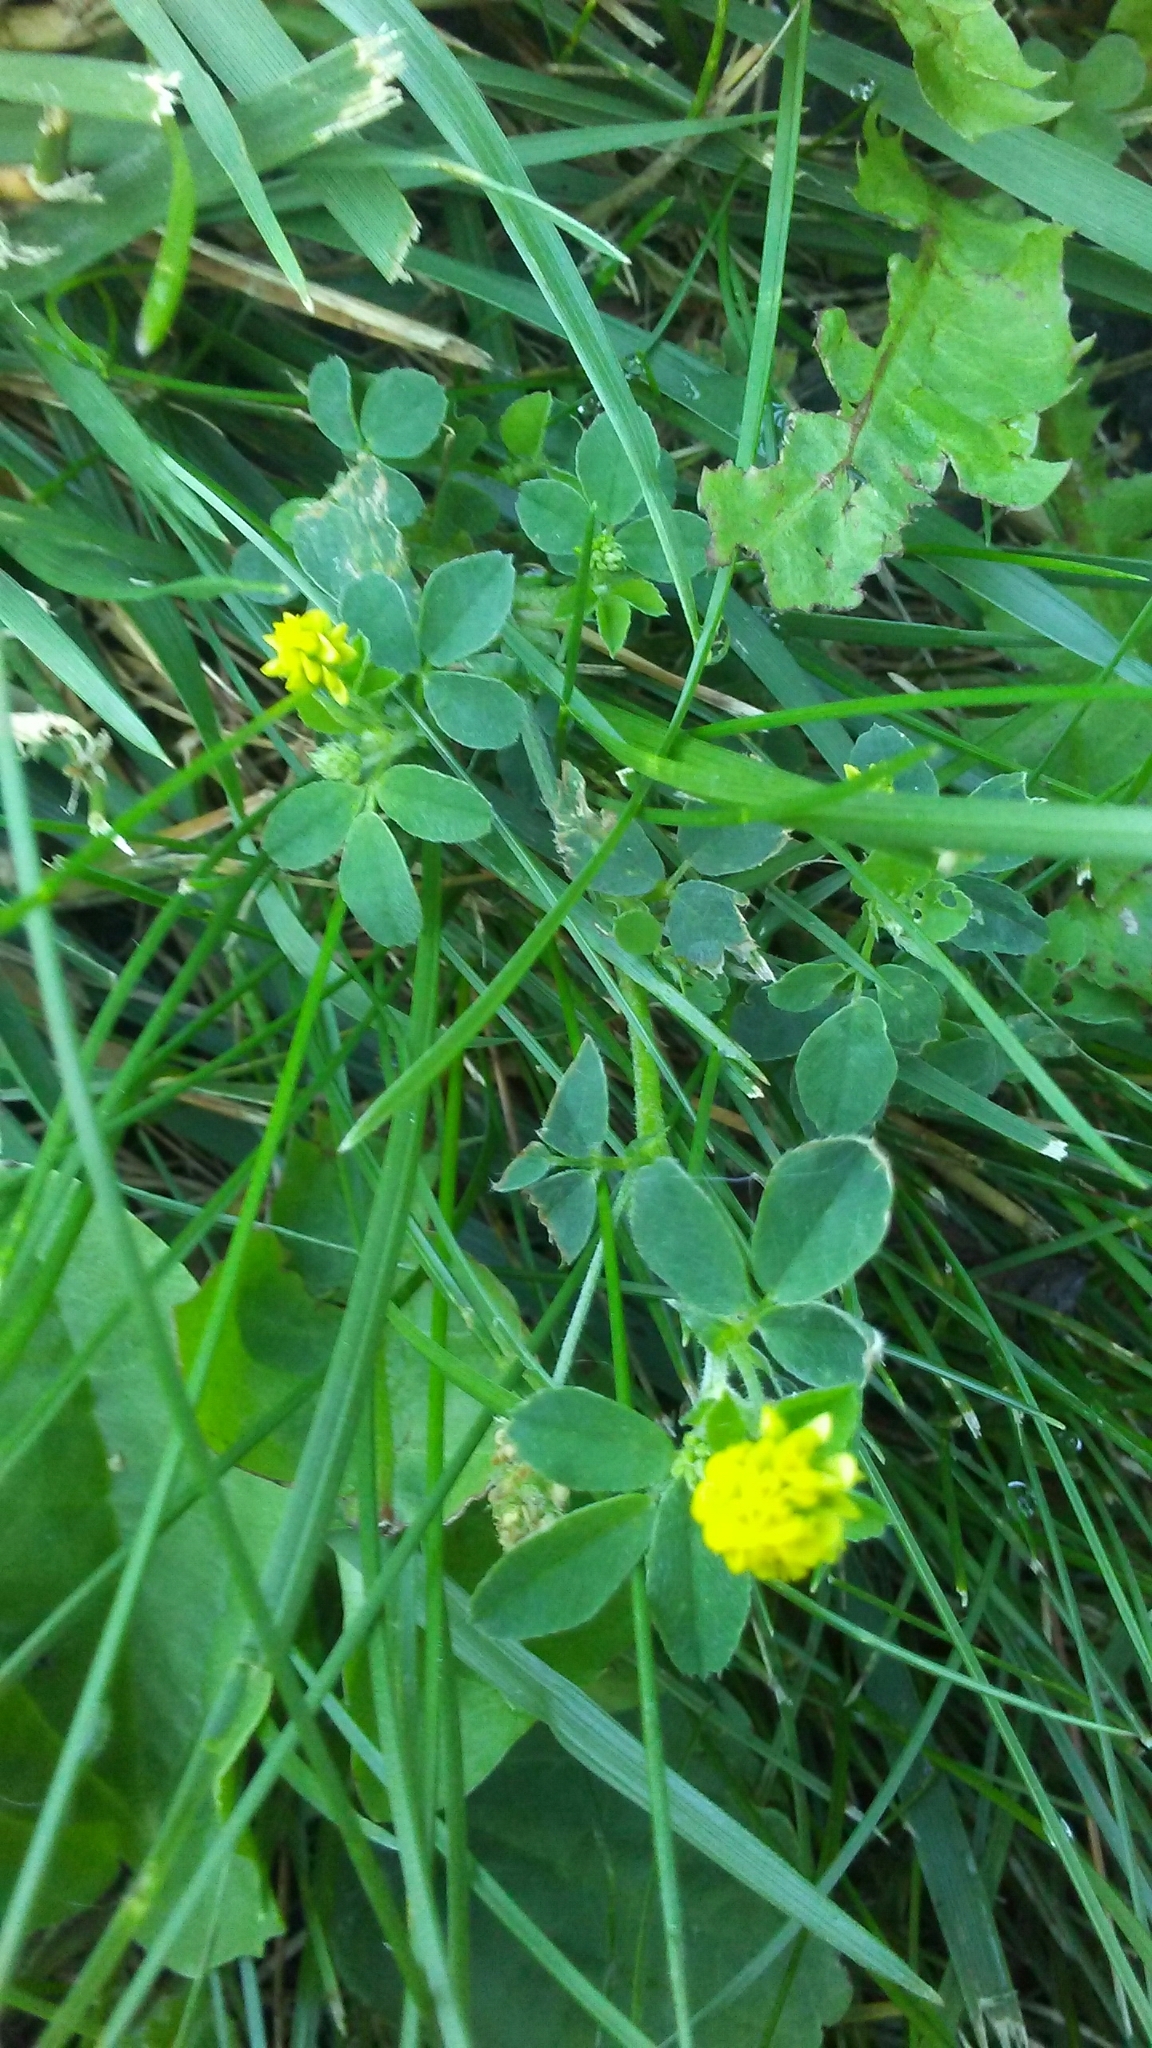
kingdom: Plantae
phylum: Tracheophyta
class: Magnoliopsida
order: Fabales
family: Fabaceae
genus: Medicago
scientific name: Medicago lupulina
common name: Black medick
